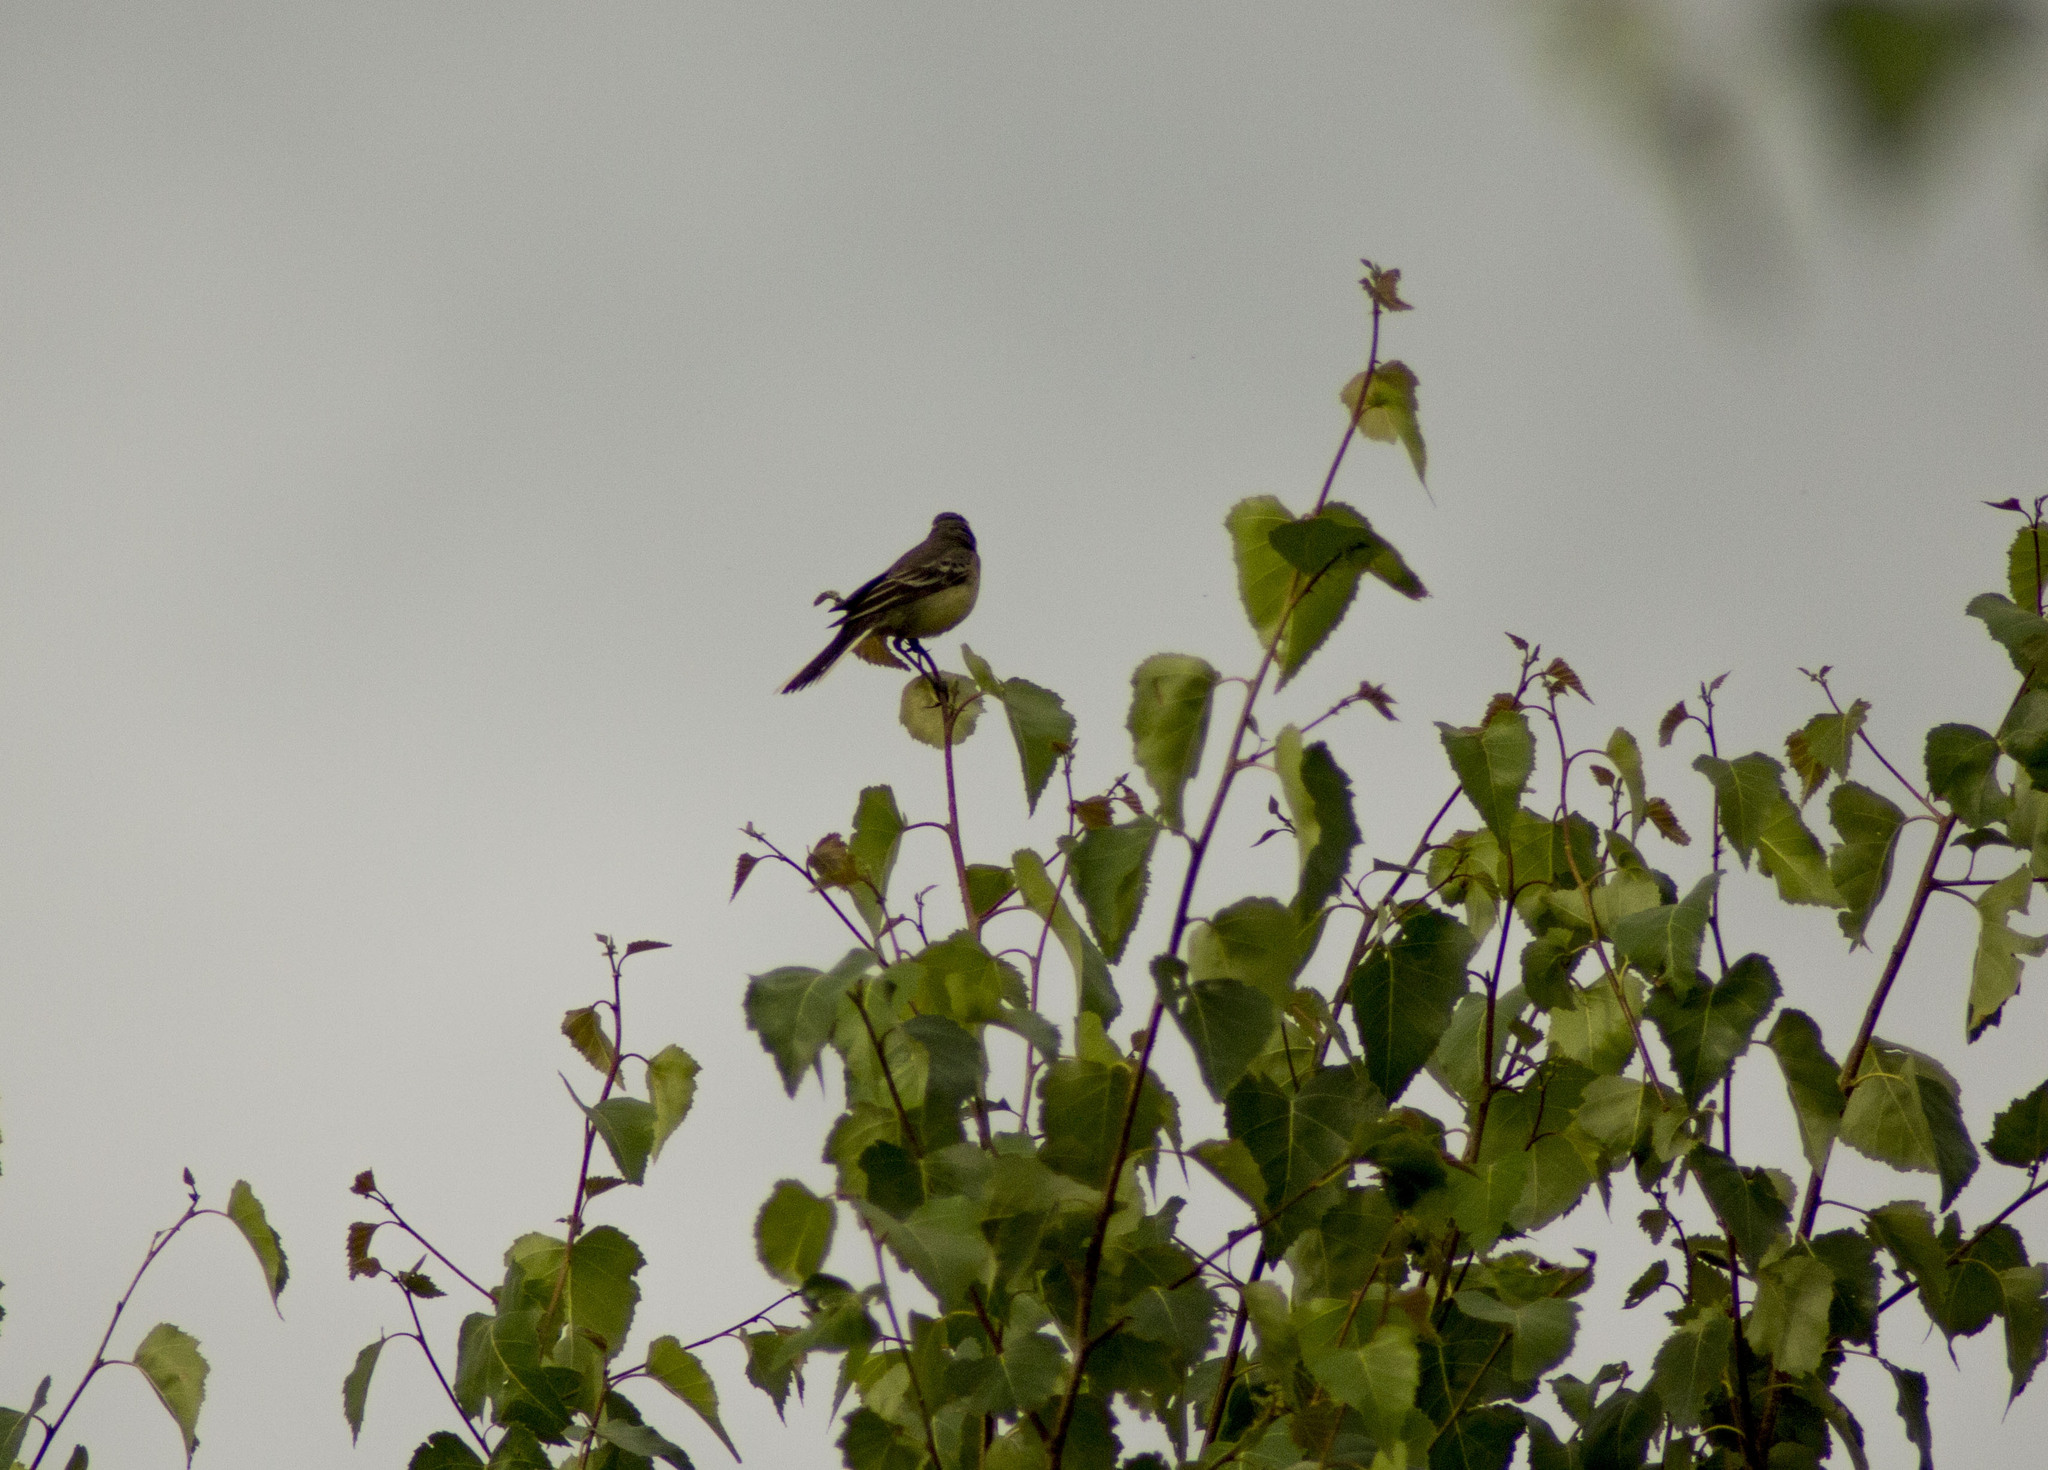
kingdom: Animalia
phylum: Chordata
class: Aves
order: Passeriformes
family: Motacillidae
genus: Motacilla
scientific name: Motacilla citreola
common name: Citrine wagtail
